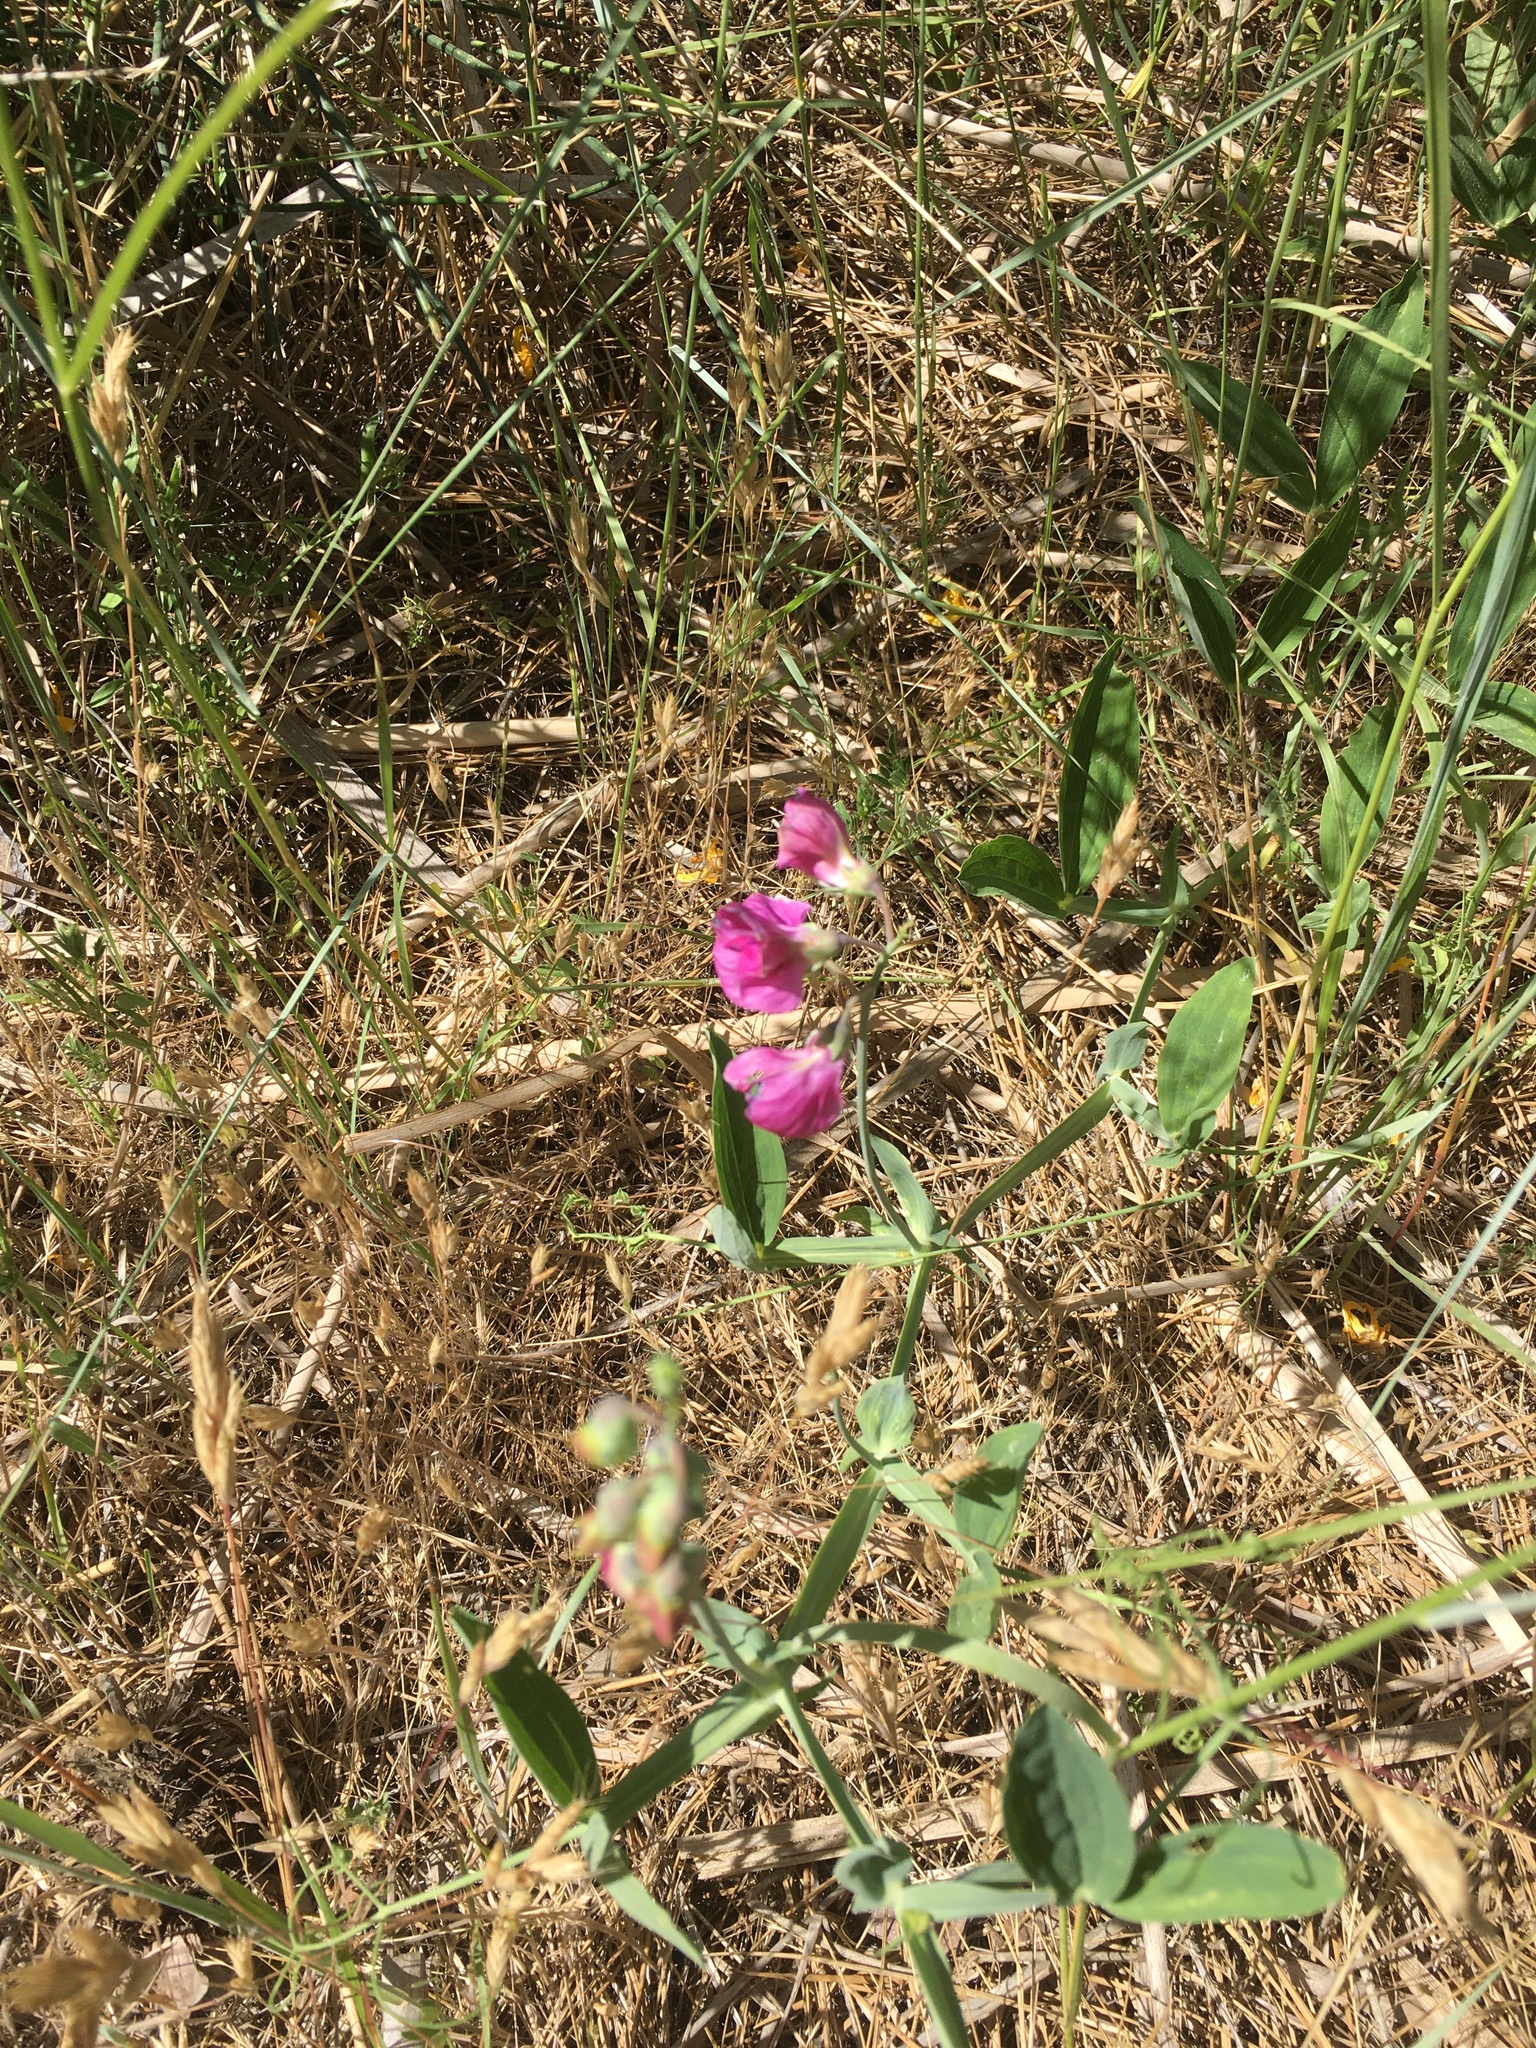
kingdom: Plantae
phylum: Tracheophyta
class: Magnoliopsida
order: Fabales
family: Fabaceae
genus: Lathyrus
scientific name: Lathyrus latifolius
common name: Perennial pea
